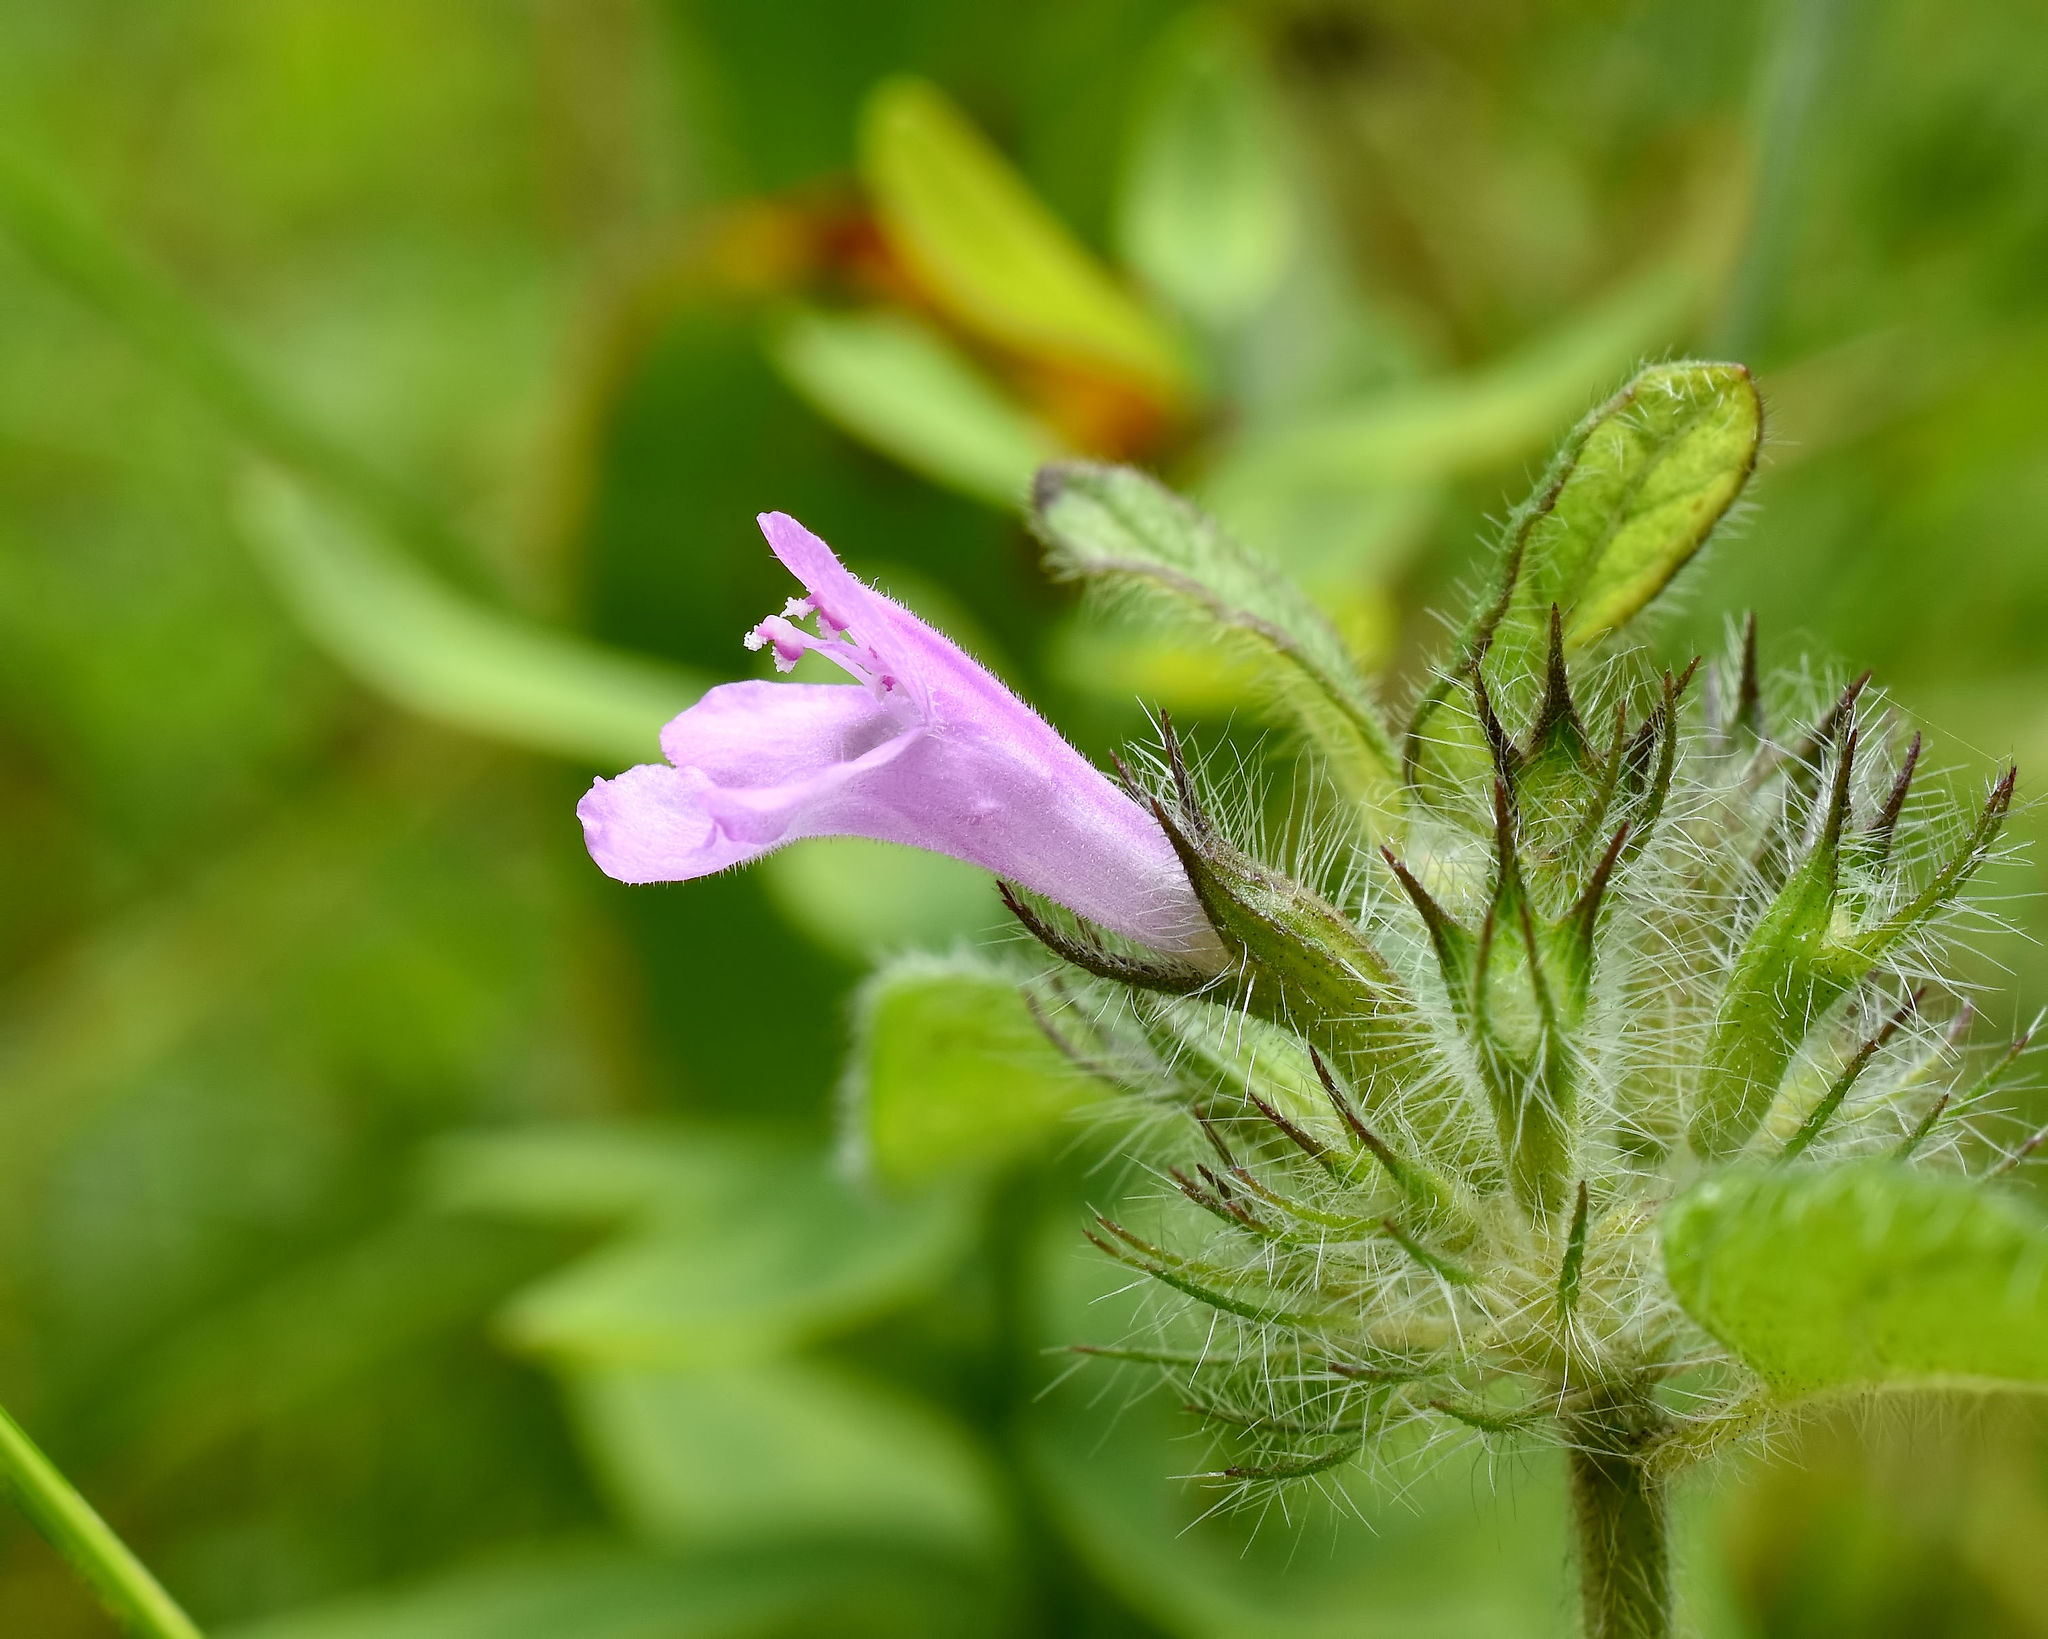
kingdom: Plantae
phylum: Tracheophyta
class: Magnoliopsida
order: Lamiales
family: Lamiaceae
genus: Clinopodium
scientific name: Clinopodium vulgare
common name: Wild basil
